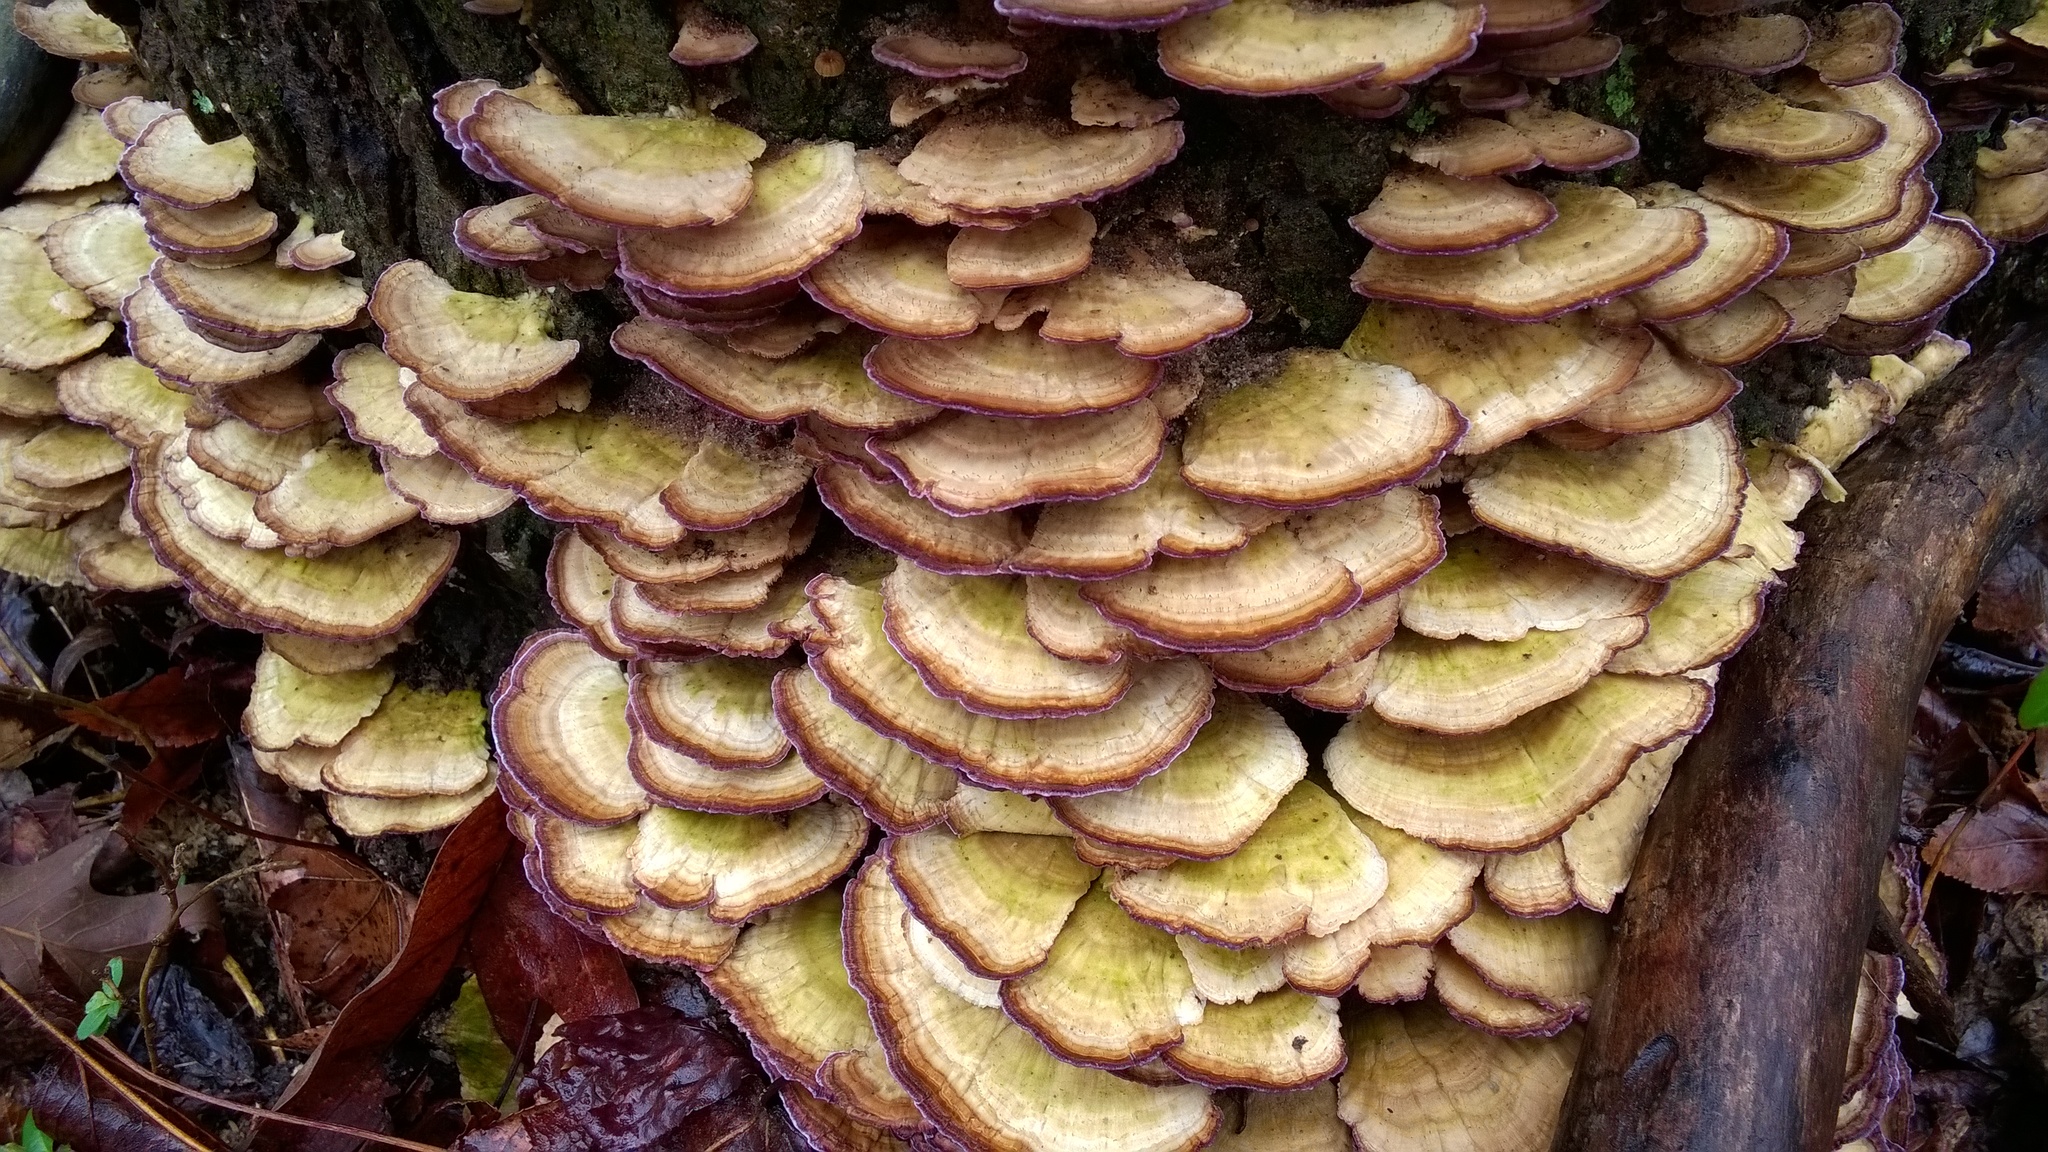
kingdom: Fungi
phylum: Basidiomycota
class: Agaricomycetes
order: Hymenochaetales
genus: Trichaptum
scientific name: Trichaptum biforme
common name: Violet-toothed polypore
